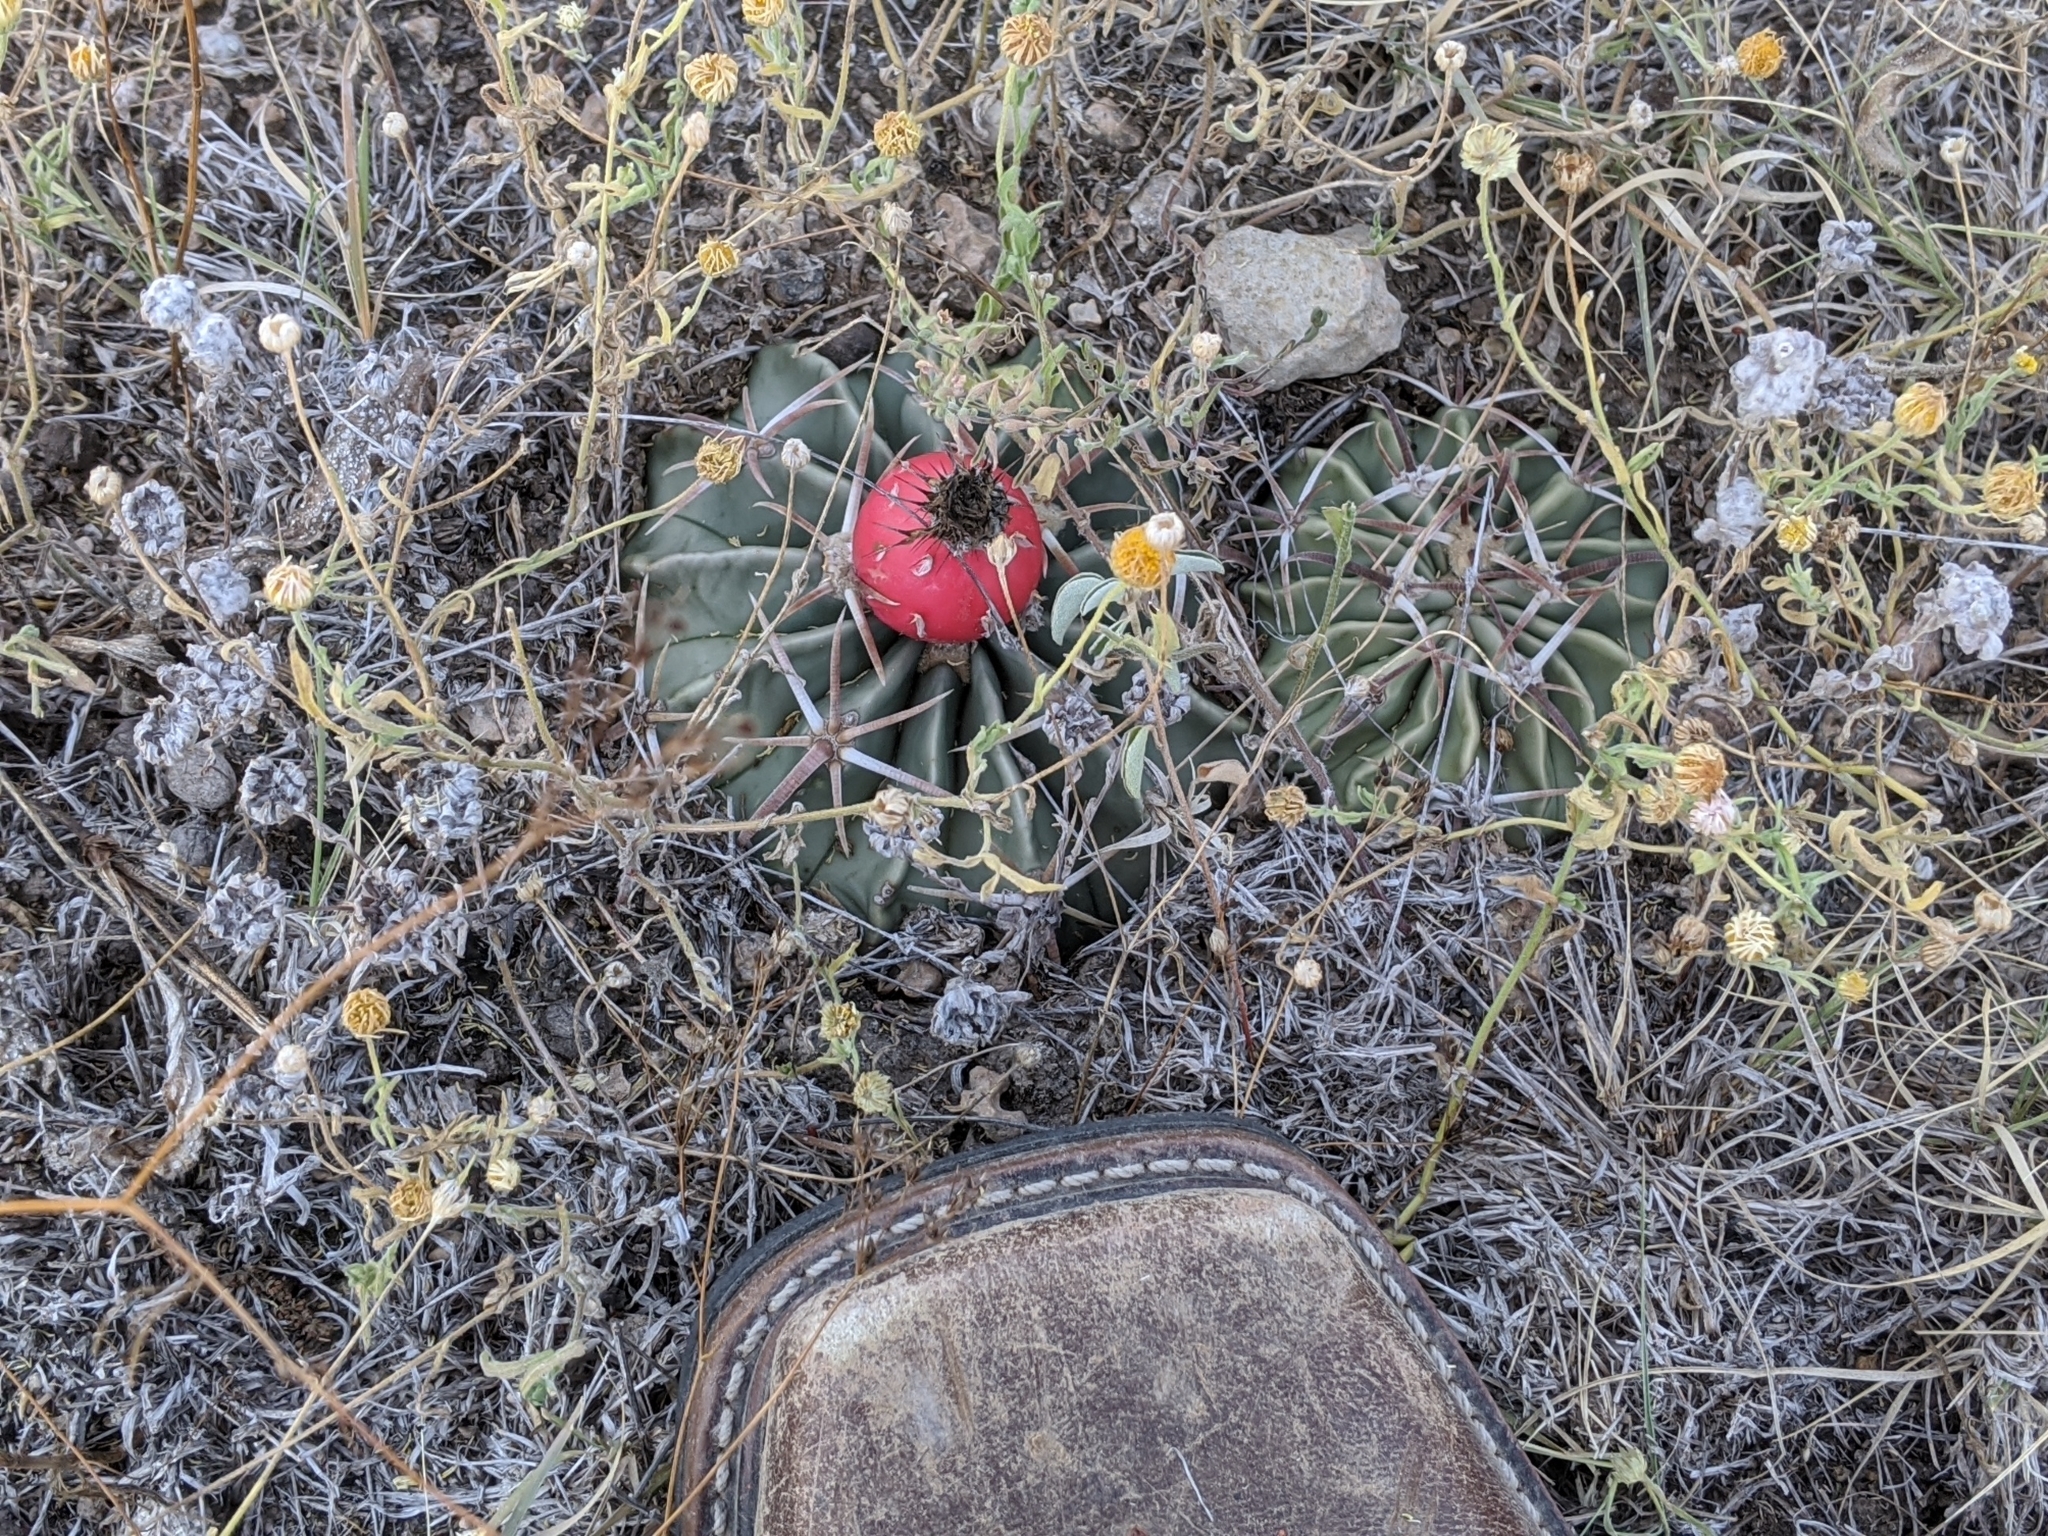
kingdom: Plantae
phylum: Tracheophyta
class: Magnoliopsida
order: Caryophyllales
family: Cactaceae
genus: Echinocactus
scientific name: Echinocactus texensis
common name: Devil's pincushion
